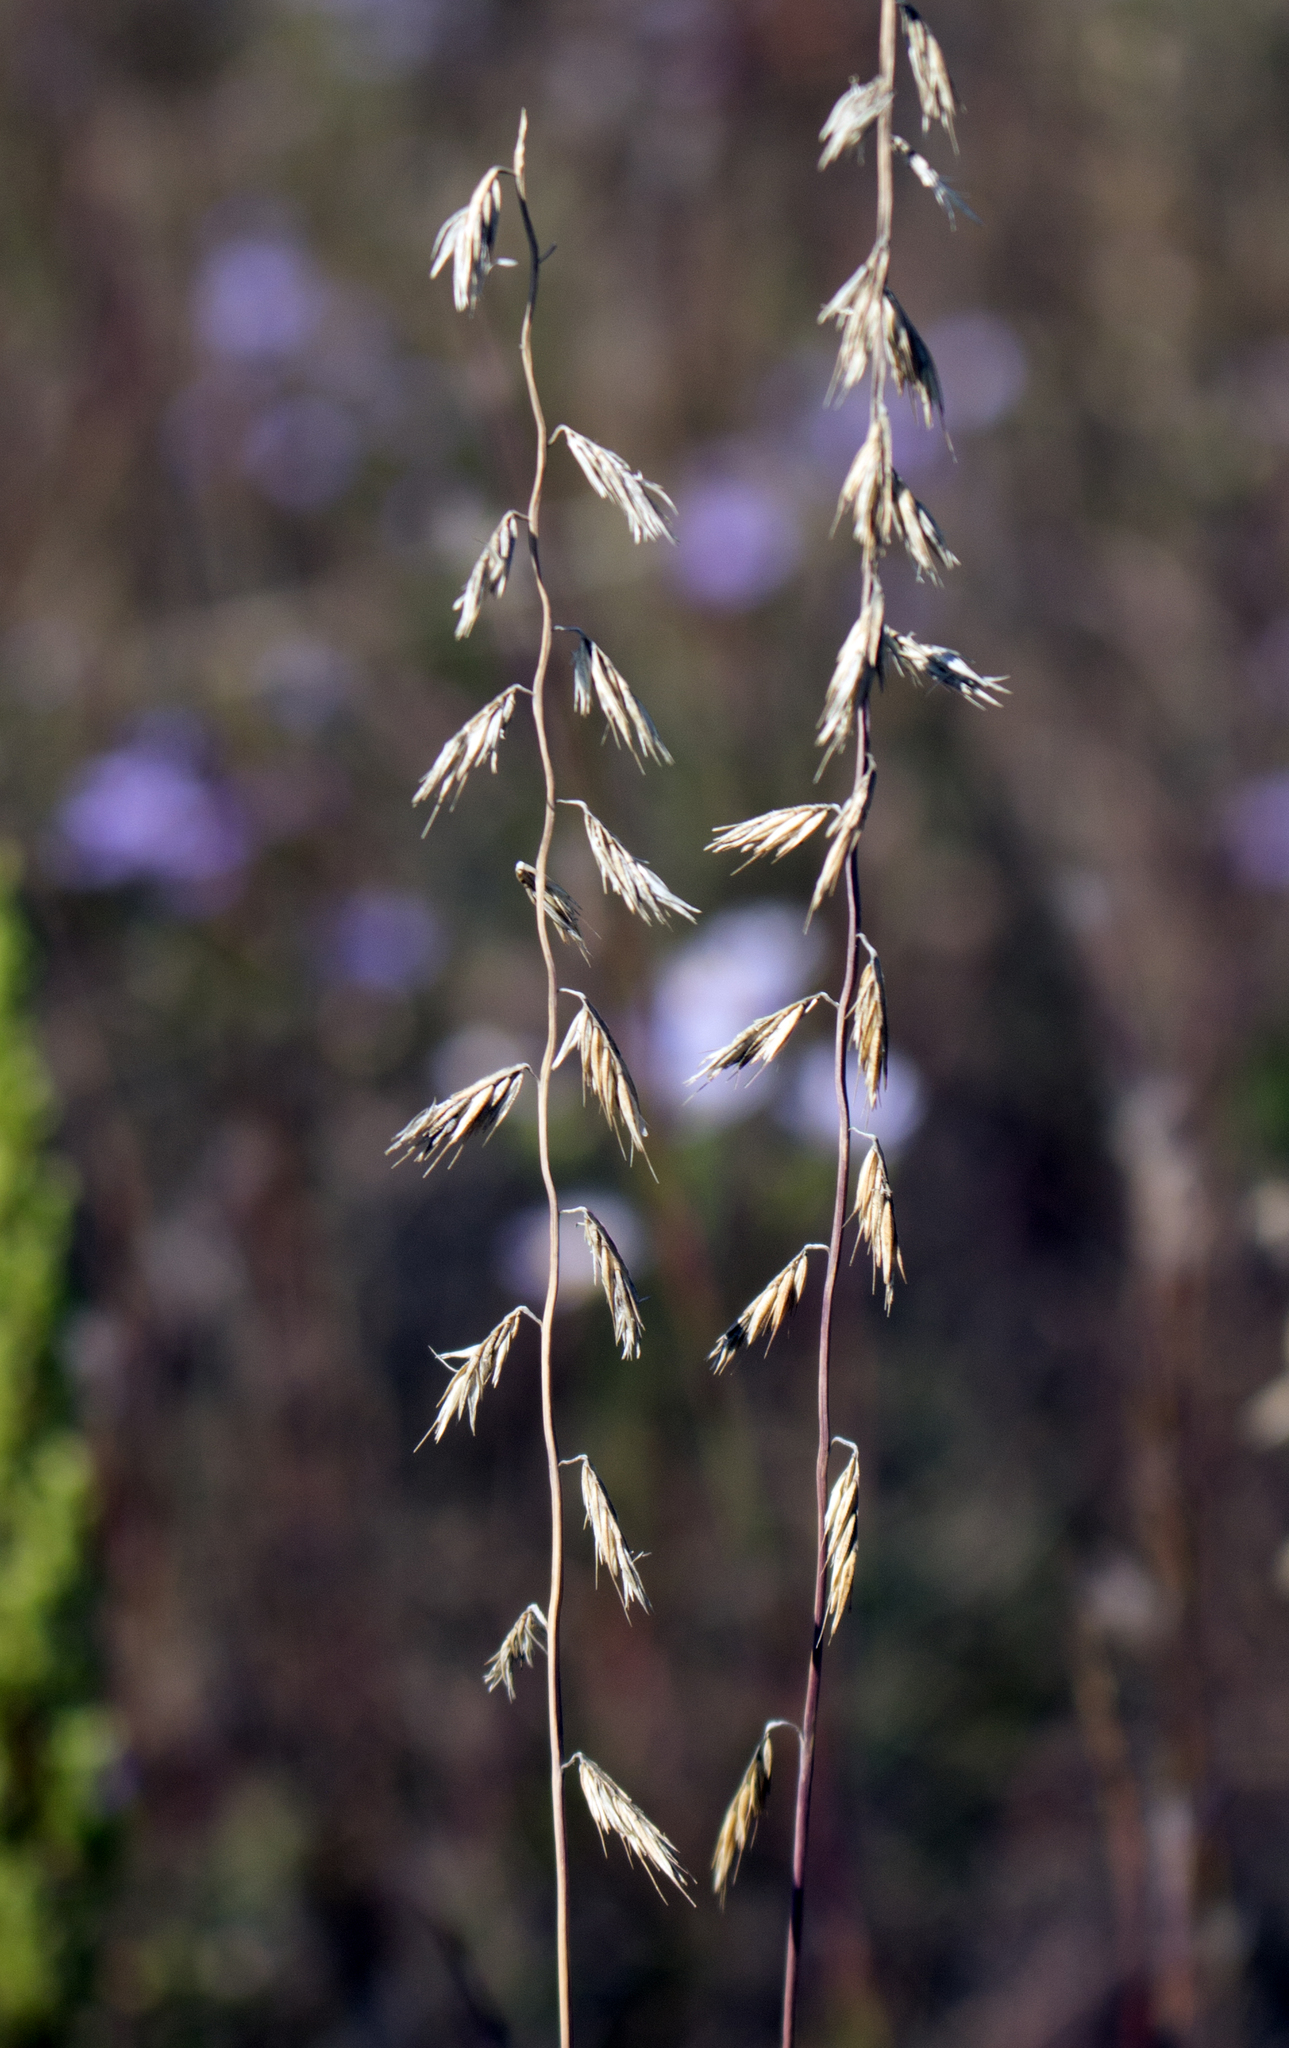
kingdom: Plantae
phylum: Tracheophyta
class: Liliopsida
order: Poales
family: Poaceae
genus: Bouteloua
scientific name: Bouteloua curtipendula
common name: Side-oats grama
